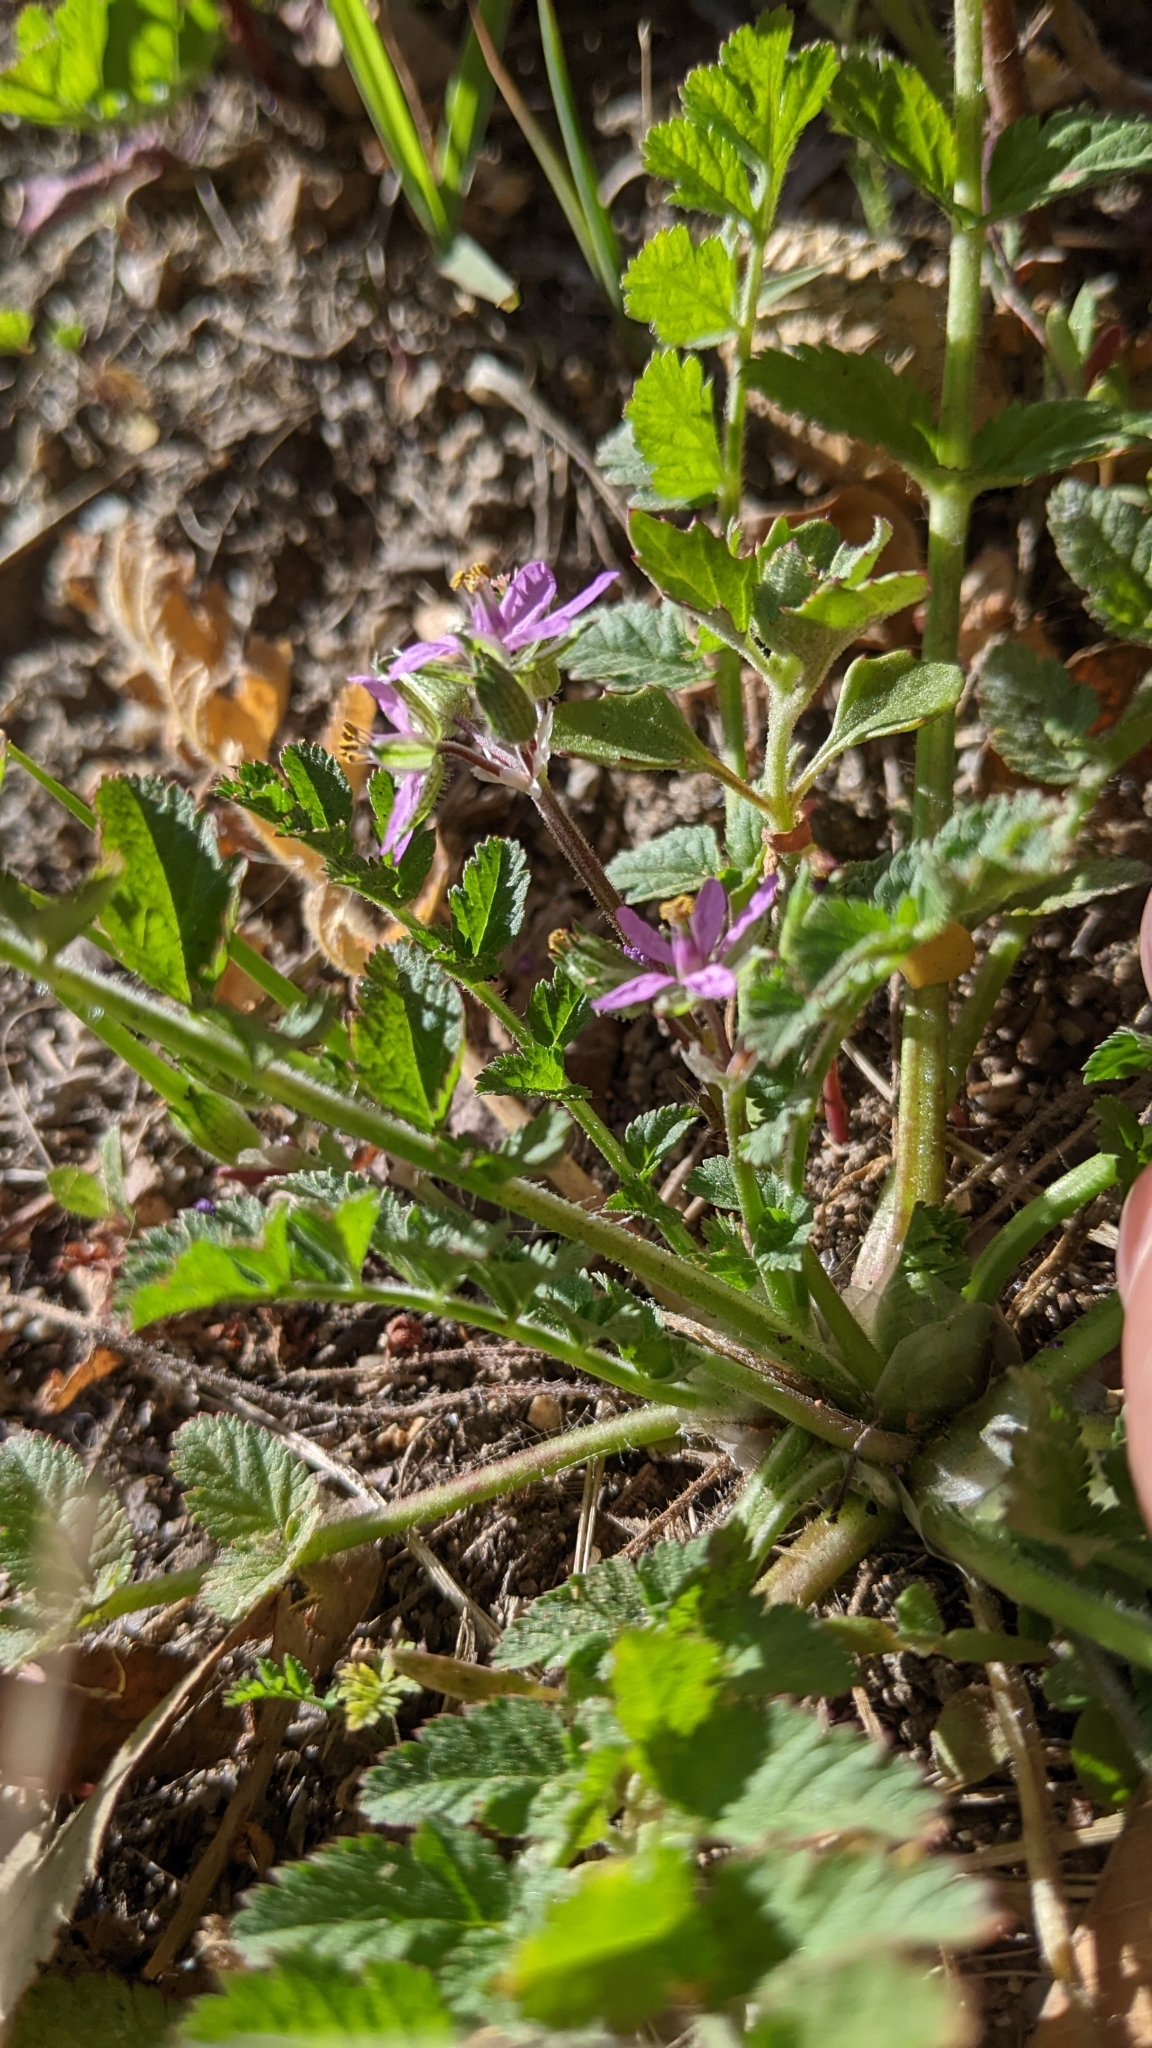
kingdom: Plantae
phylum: Tracheophyta
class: Magnoliopsida
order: Geraniales
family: Geraniaceae
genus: Erodium
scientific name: Erodium moschatum
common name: Musk stork's-bill
